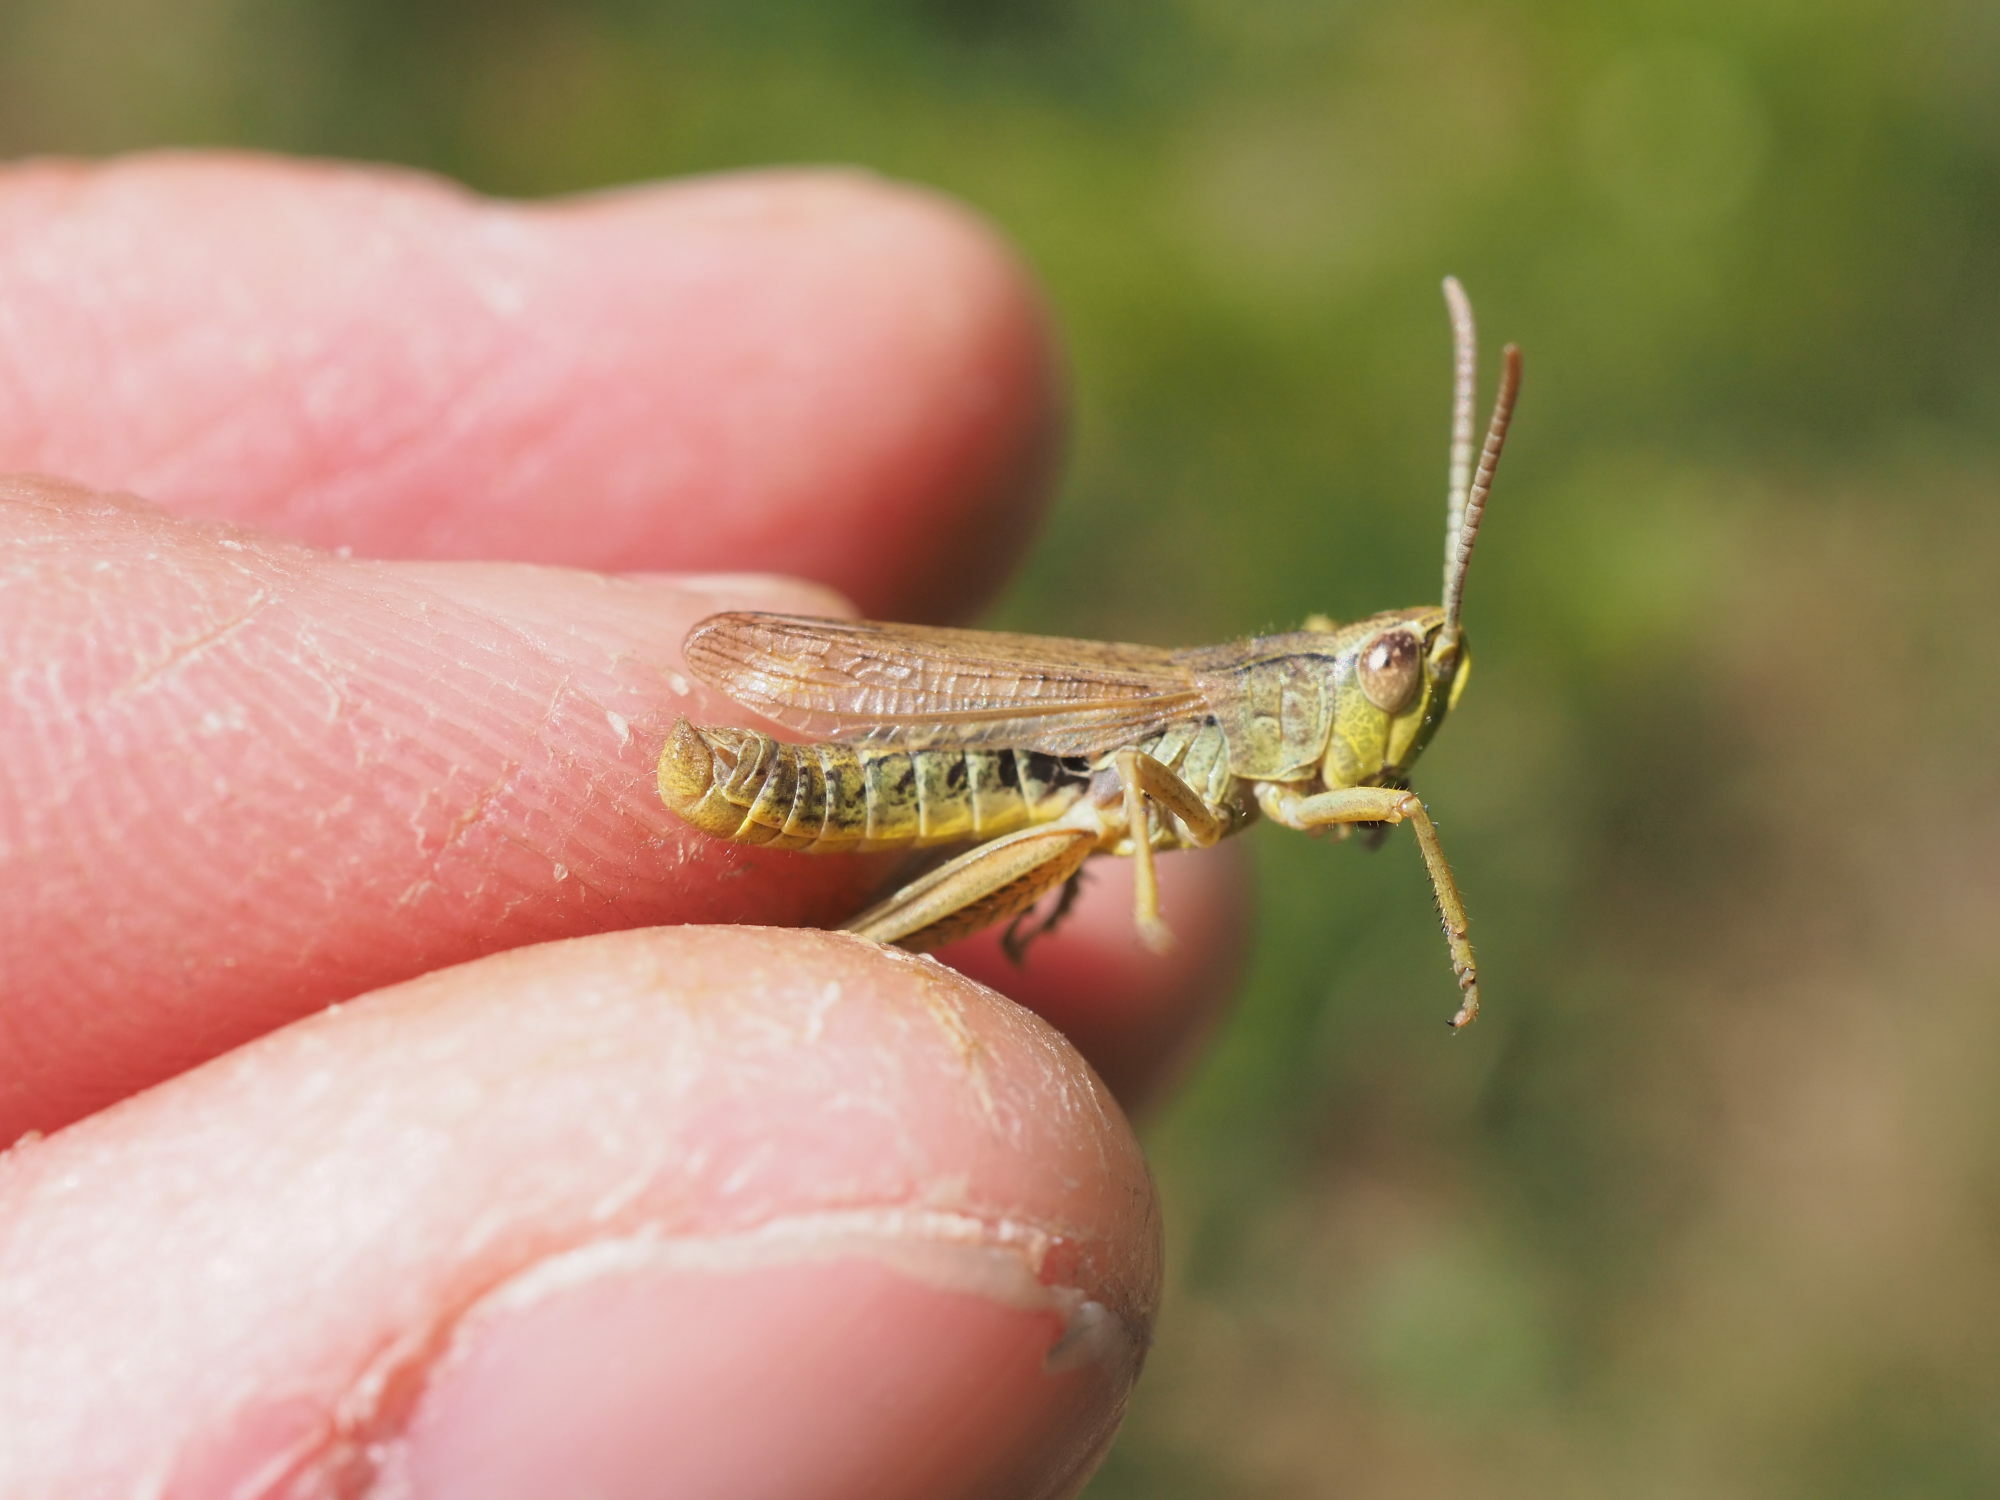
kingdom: Animalia
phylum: Arthropoda
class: Insecta
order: Orthoptera
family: Acrididae
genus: Pseudochorthippus
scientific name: Pseudochorthippus parallelus
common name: Meadow grasshopper
